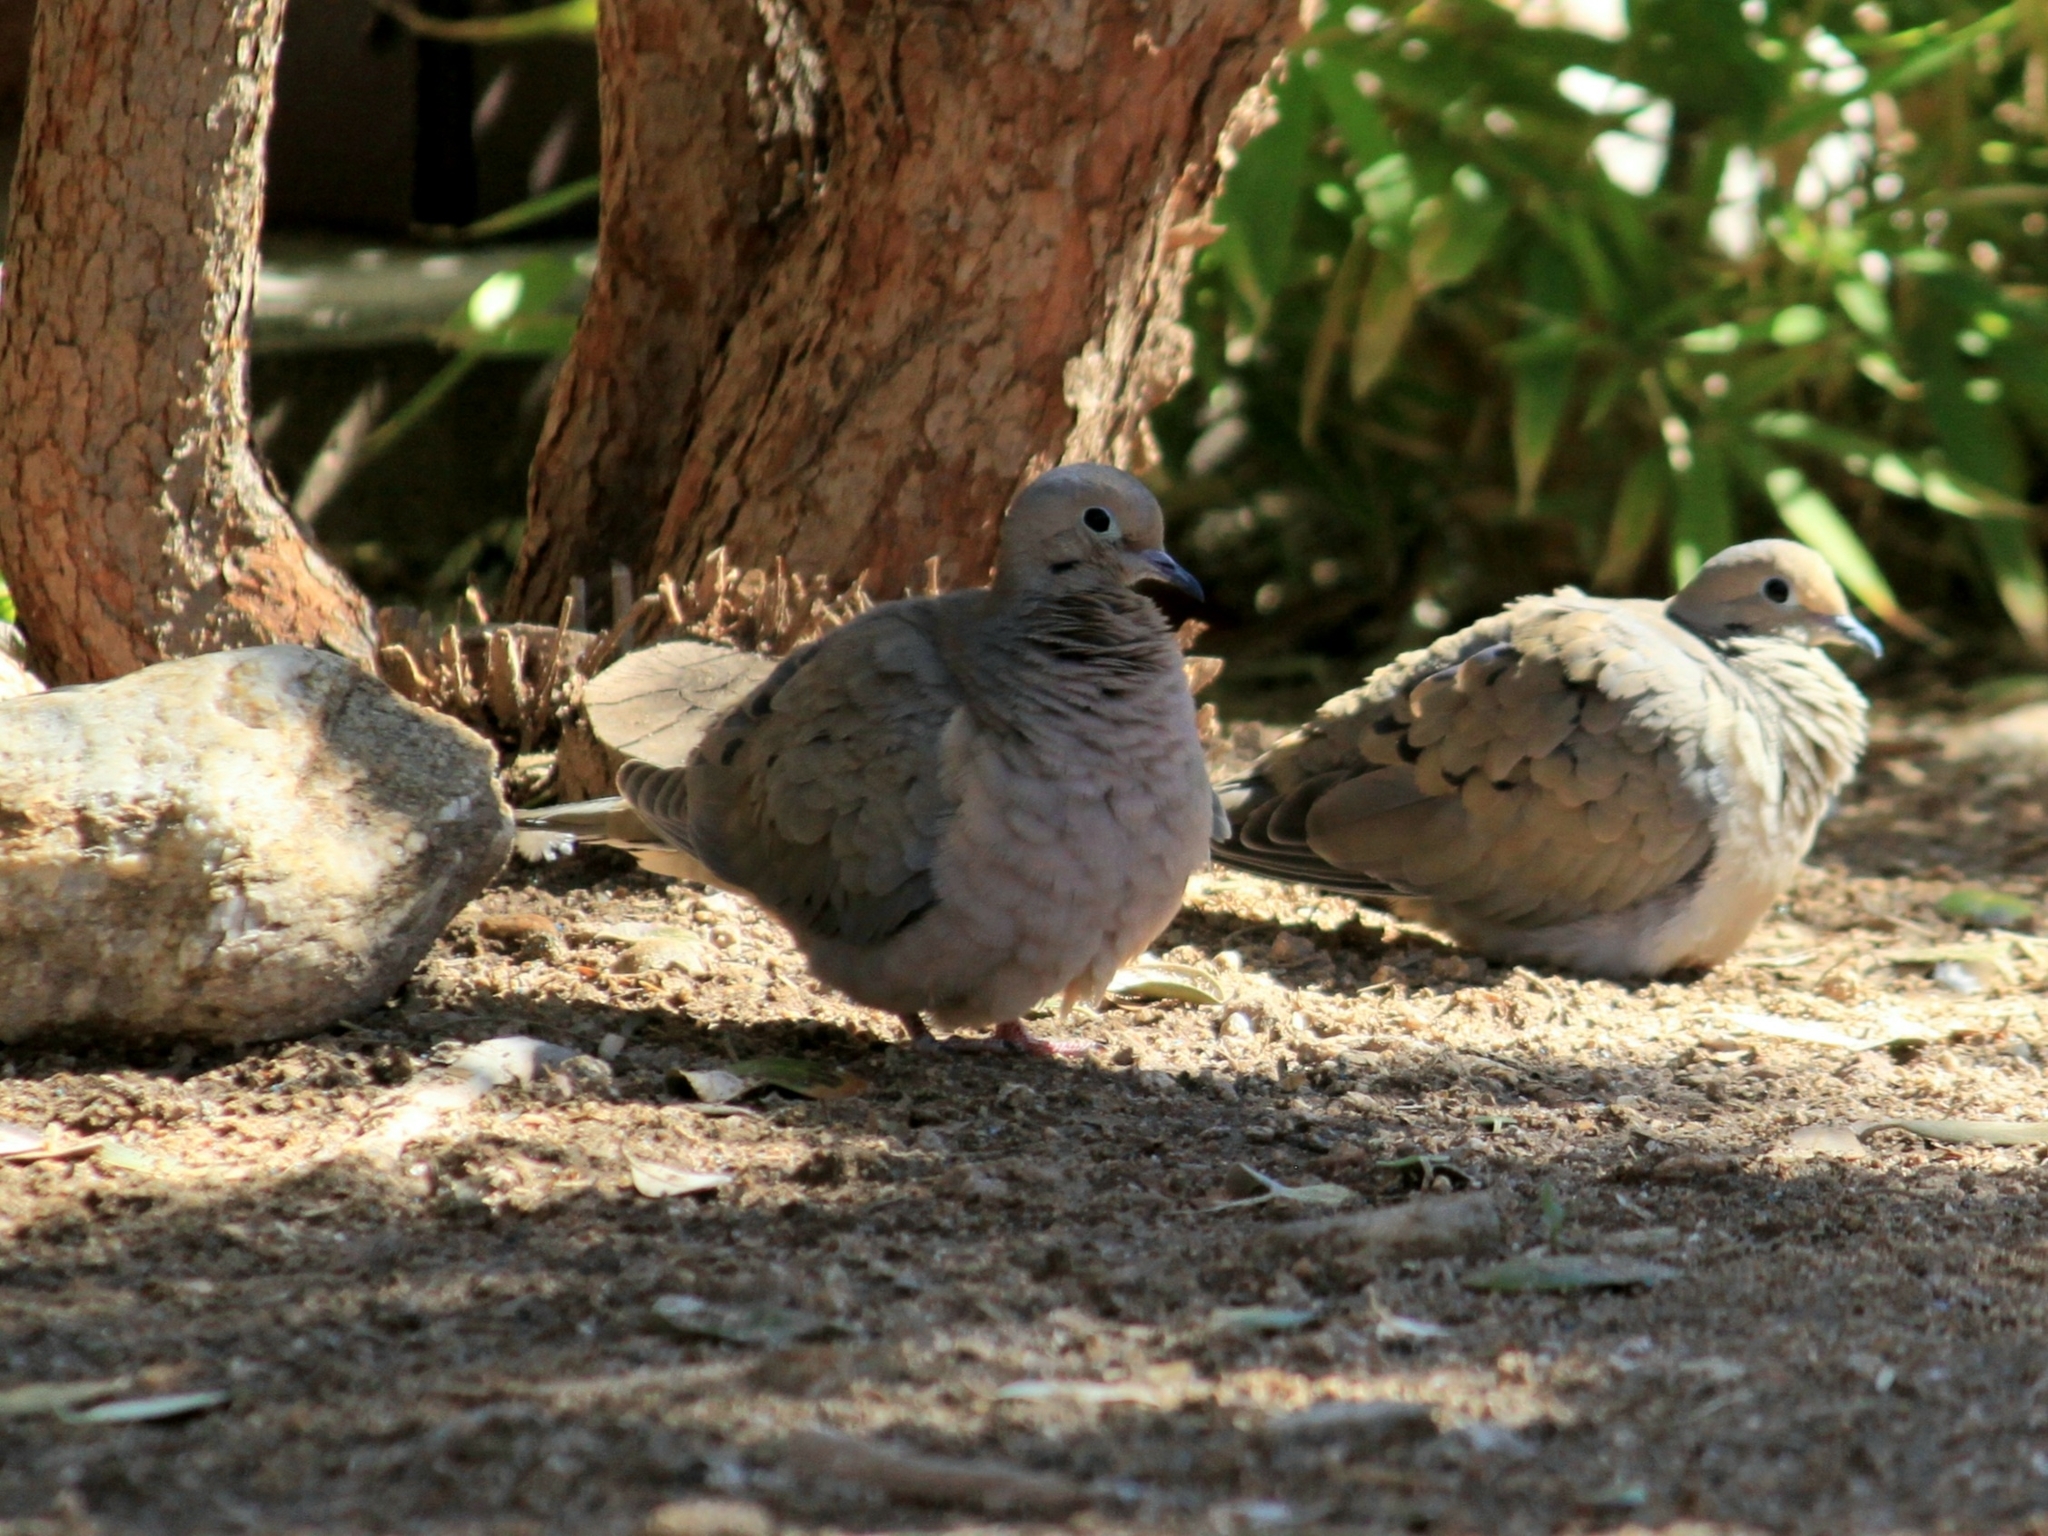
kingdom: Animalia
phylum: Chordata
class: Aves
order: Columbiformes
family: Columbidae
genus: Zenaida
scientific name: Zenaida macroura
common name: Mourning dove
